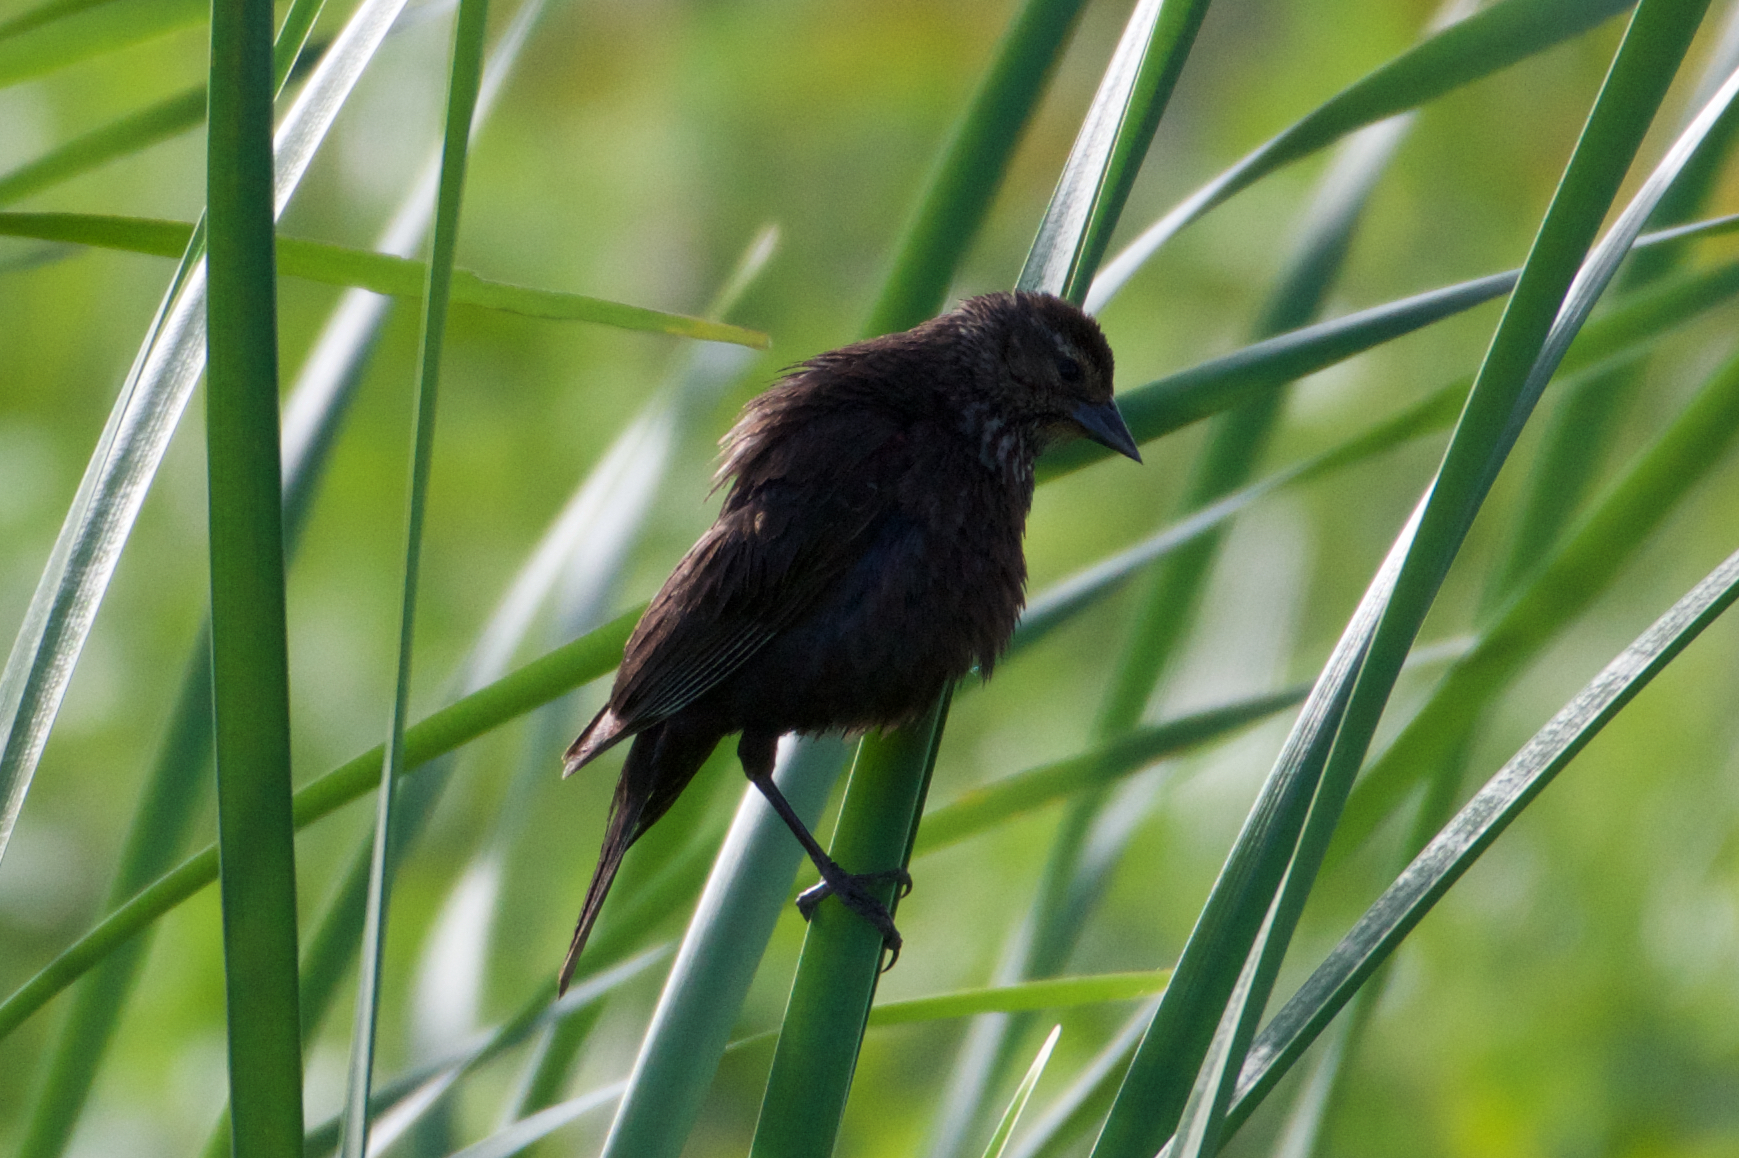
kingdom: Animalia
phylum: Chordata
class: Aves
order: Passeriformes
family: Icteridae
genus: Agelaius
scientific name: Agelaius phoeniceus
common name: Red-winged blackbird
